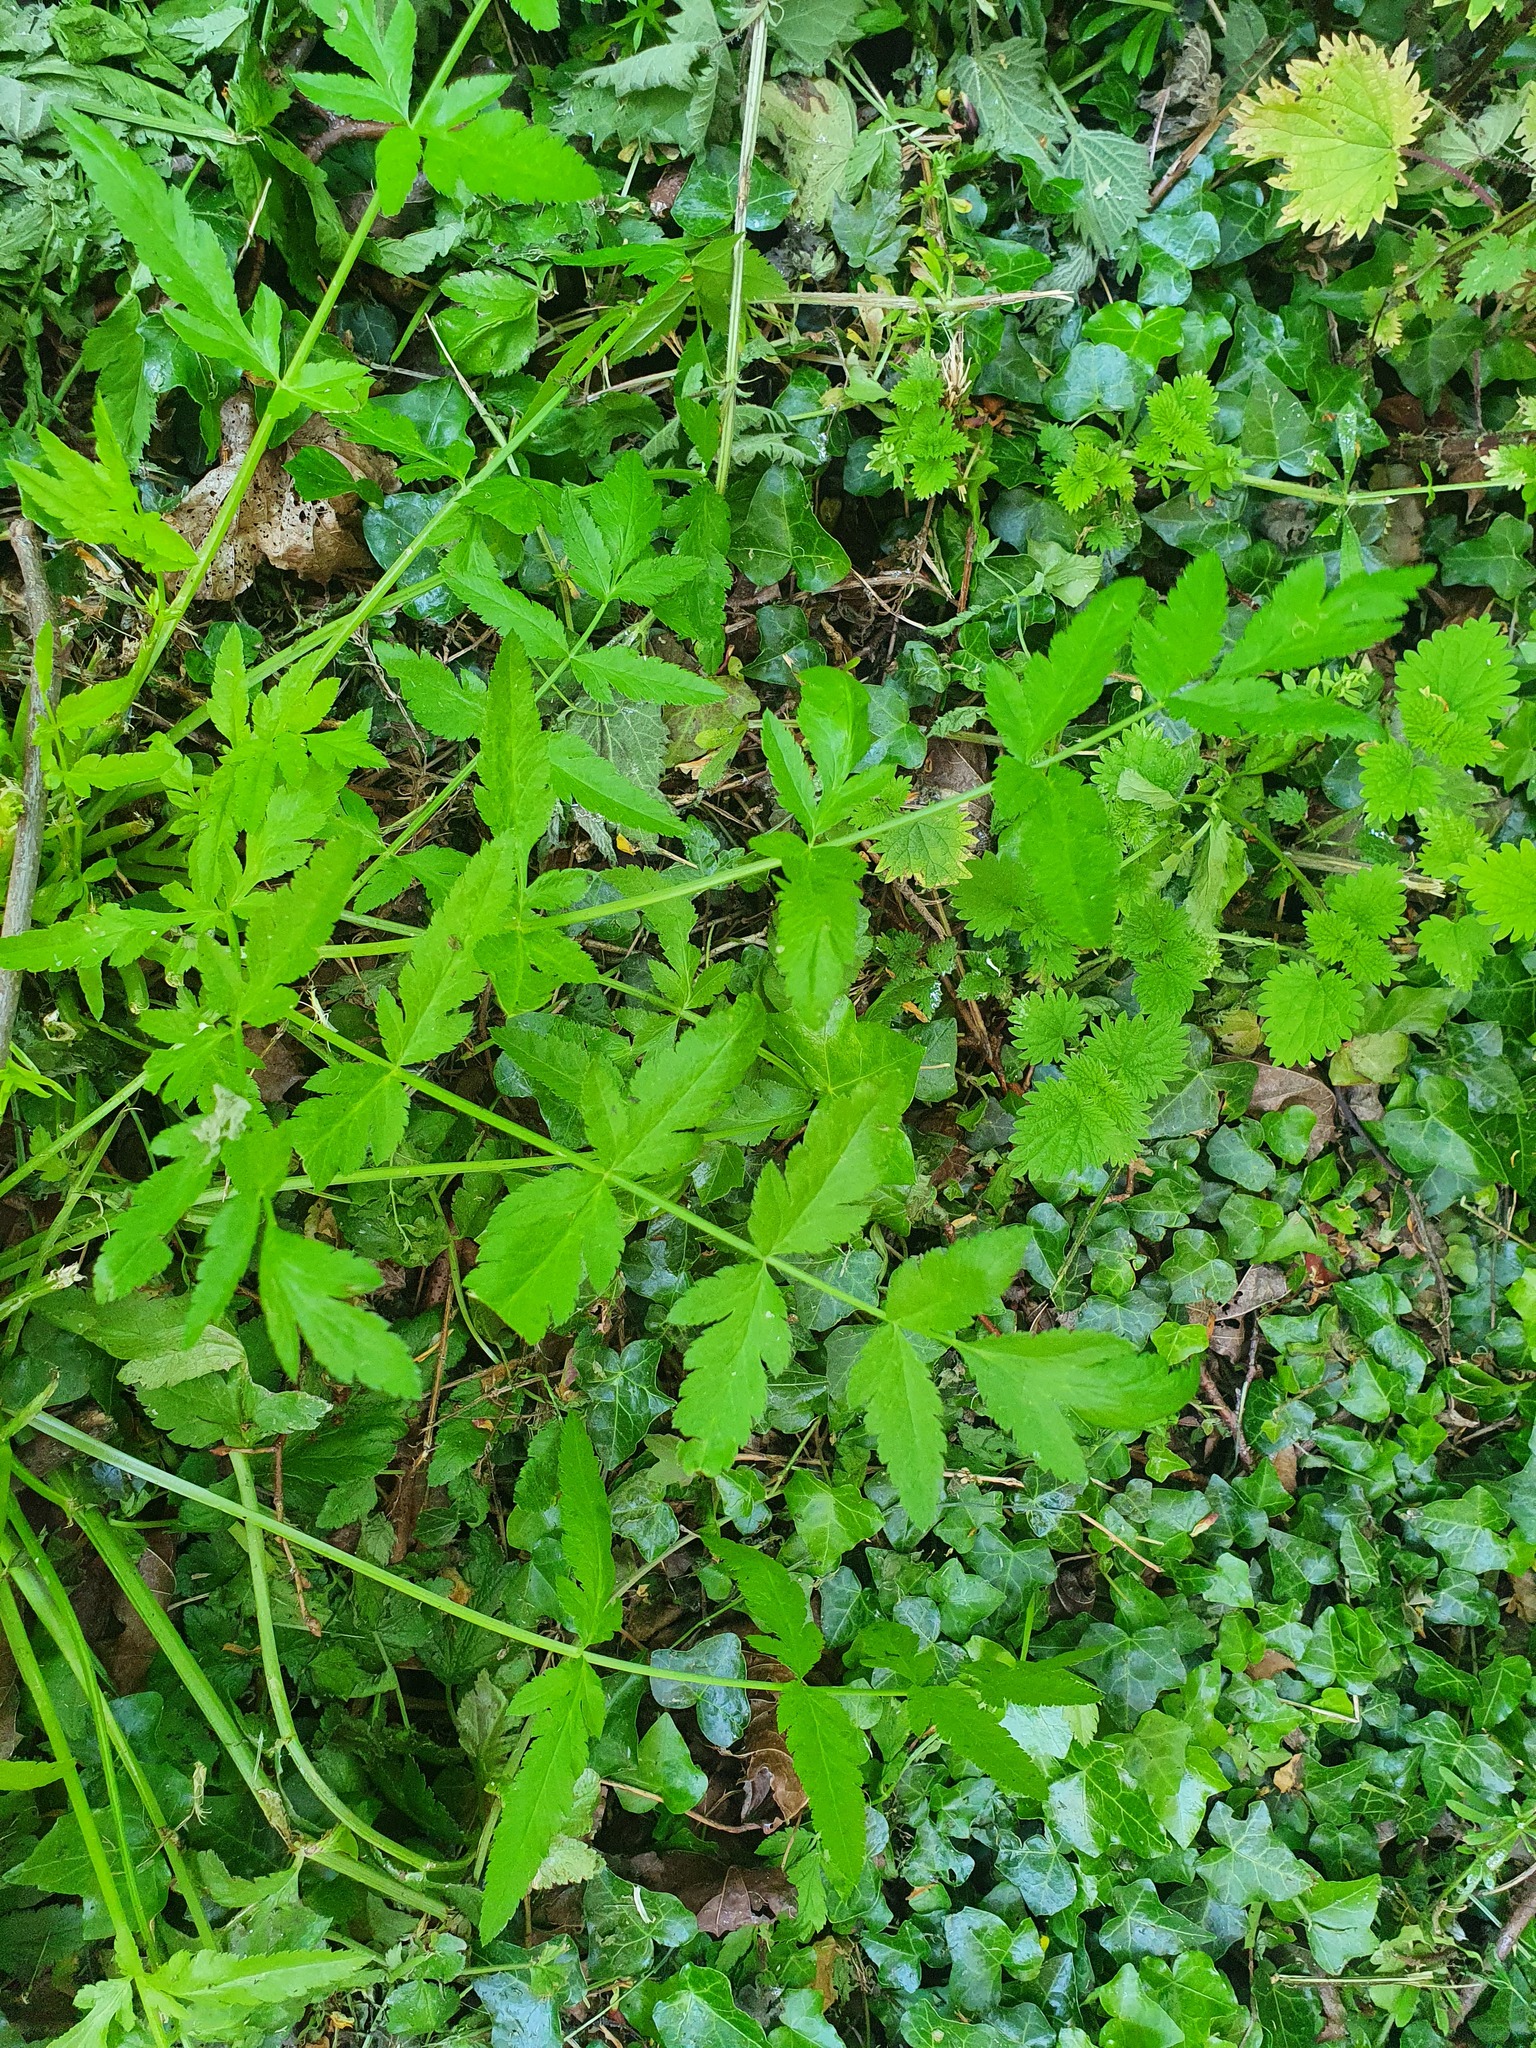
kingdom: Plantae
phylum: Tracheophyta
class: Magnoliopsida
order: Apiales
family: Apiaceae
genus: Pastinaca
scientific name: Pastinaca sativa
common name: Wild parsnip
